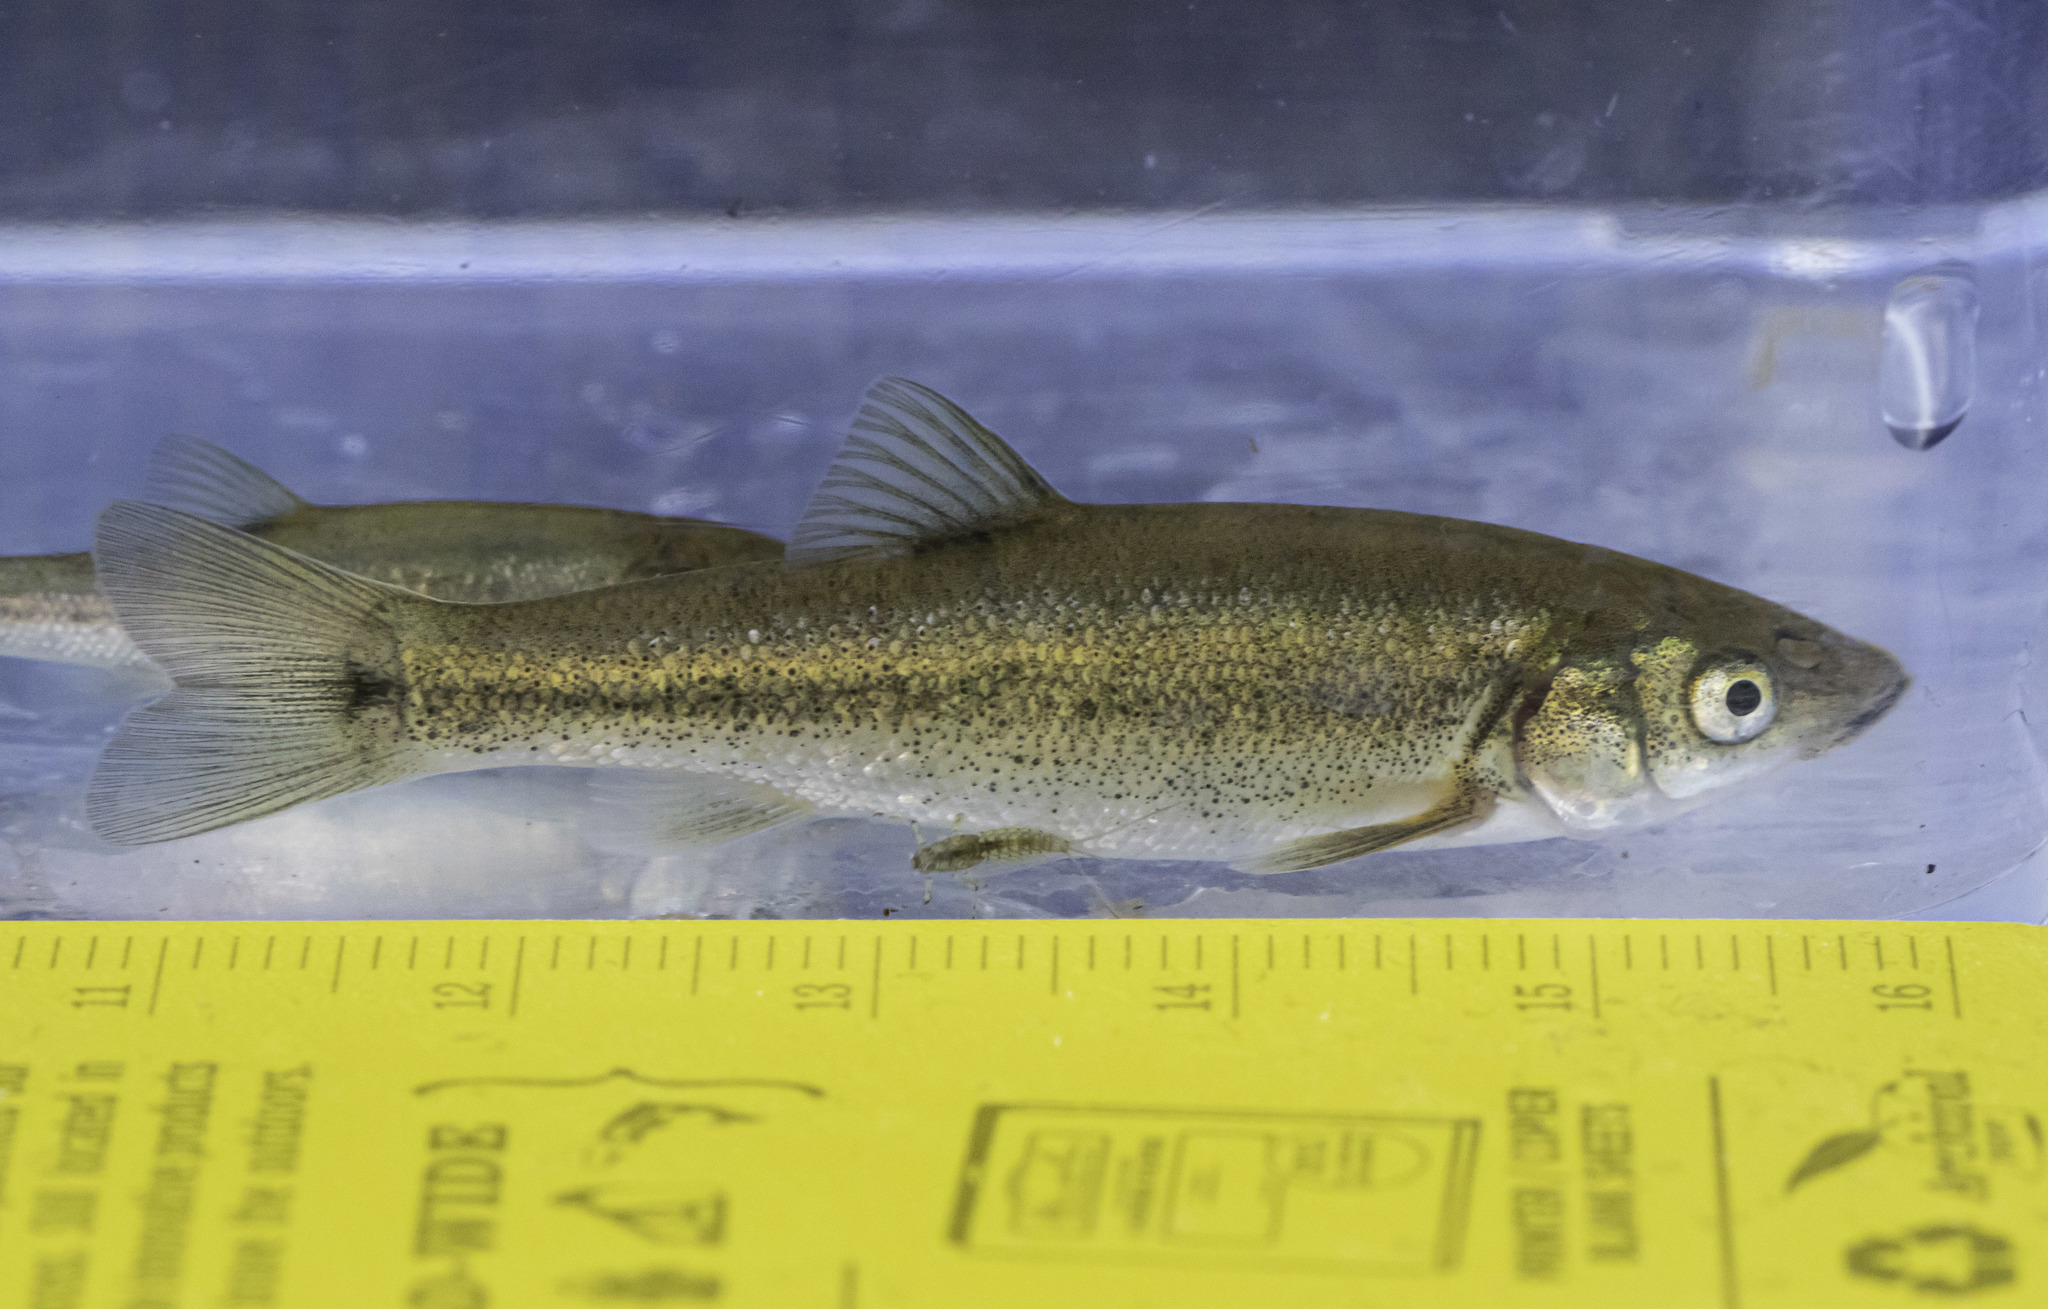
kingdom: Animalia
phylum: Chordata
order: Cypriniformes
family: Cyprinidae
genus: Gila
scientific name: Gila orcuttii
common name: Arroyo chub
